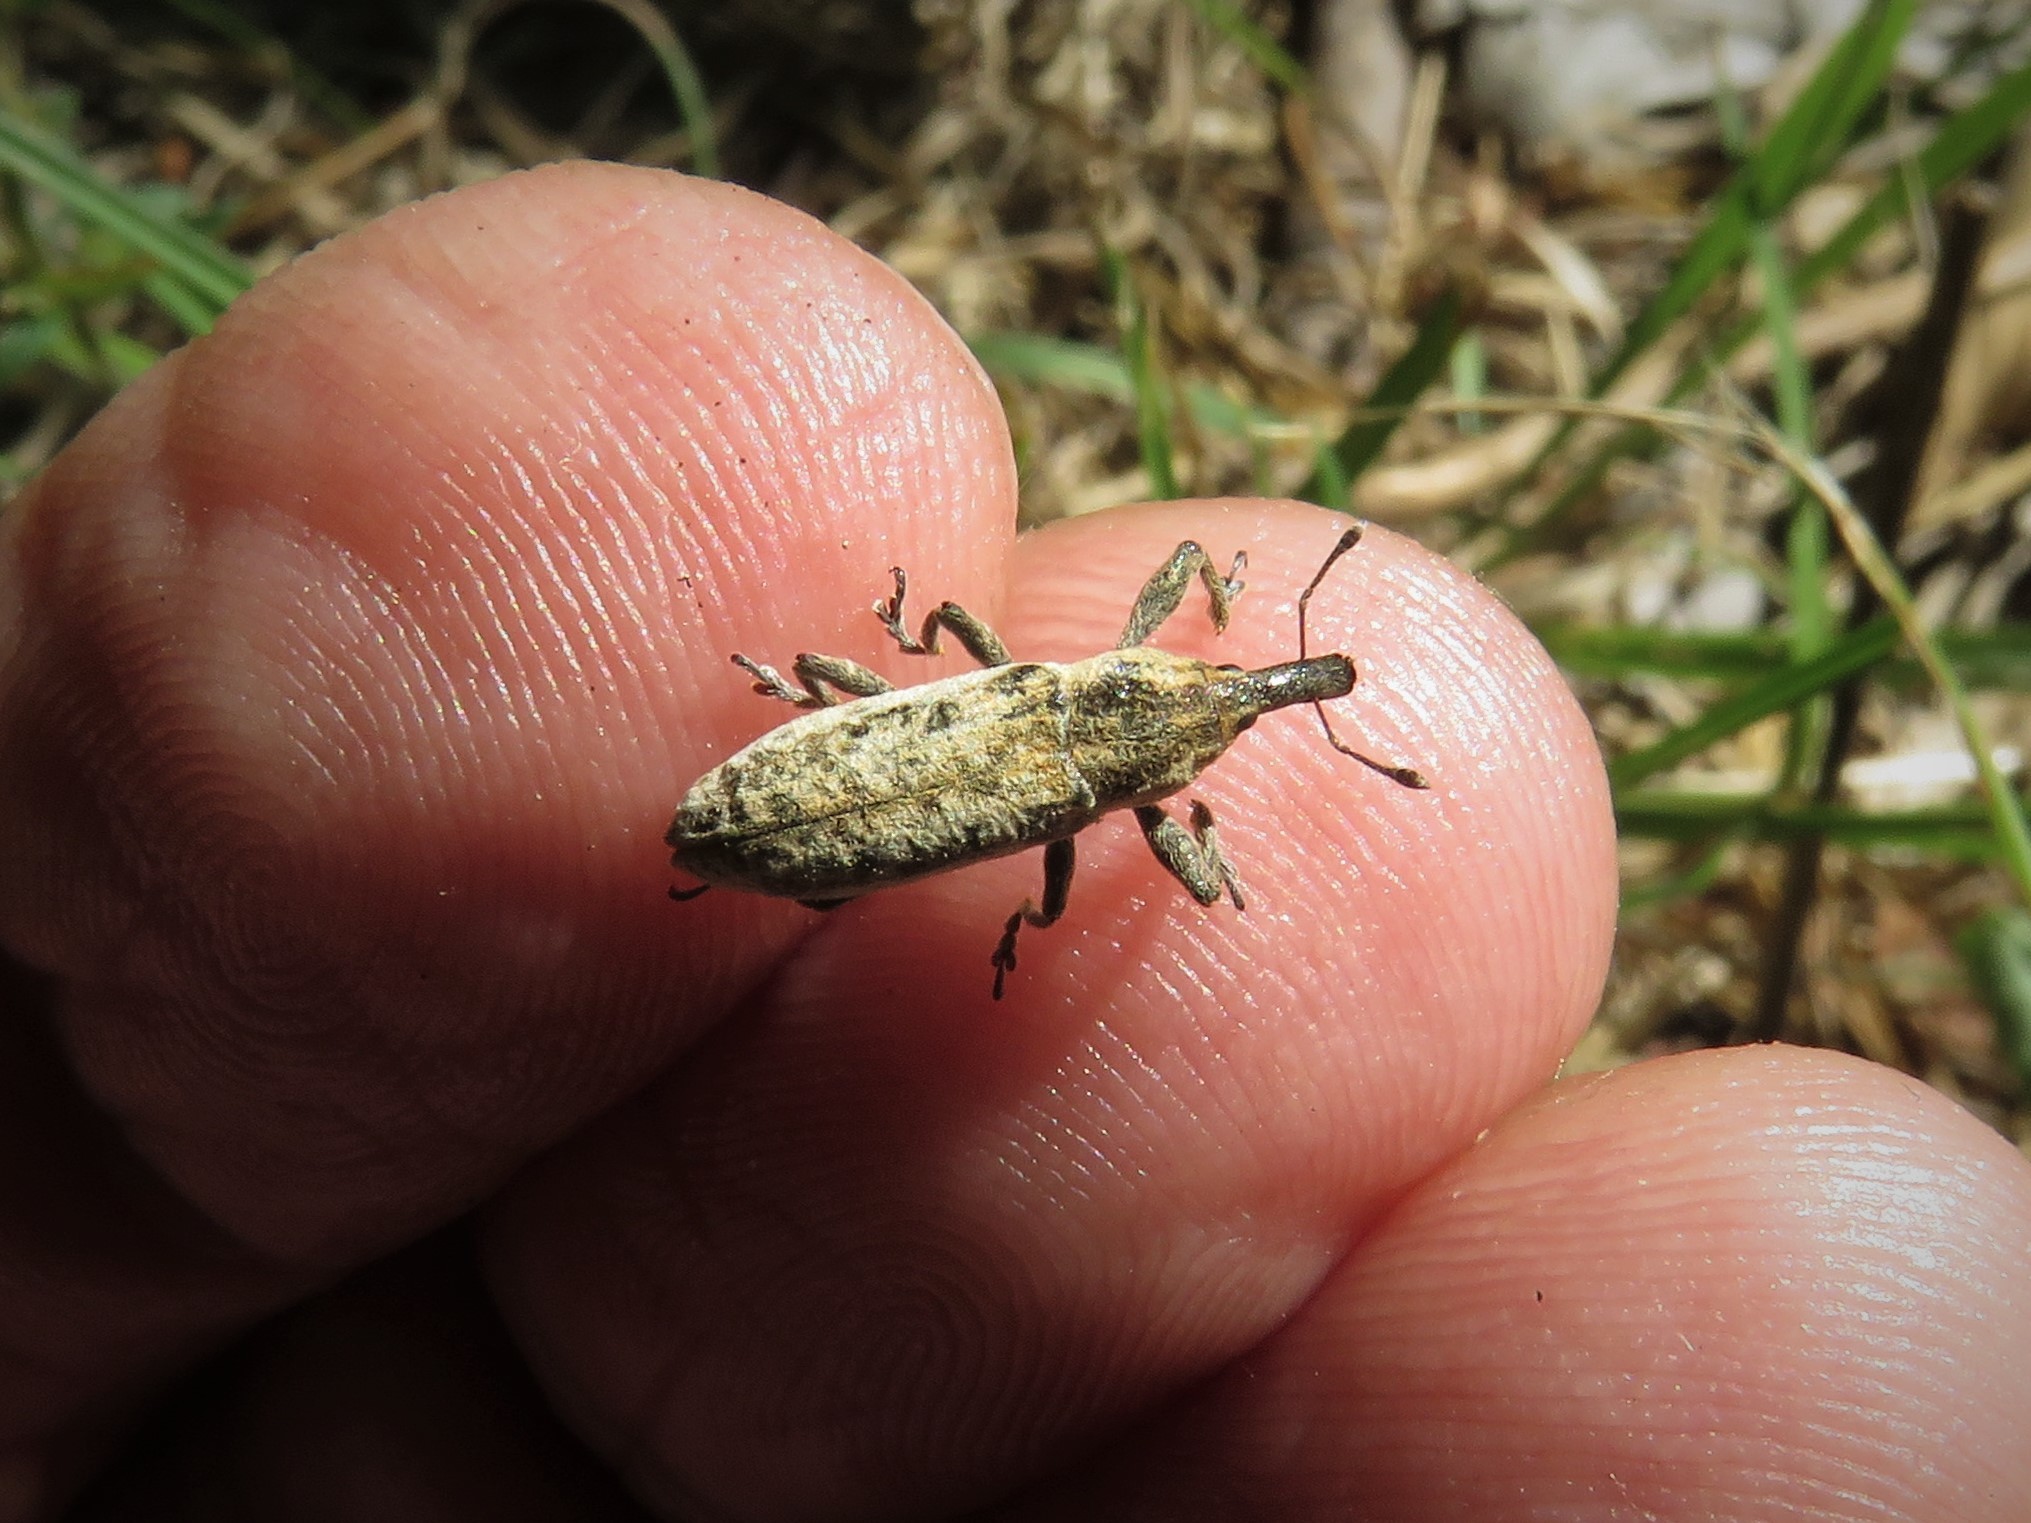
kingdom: Animalia
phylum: Arthropoda
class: Insecta
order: Coleoptera
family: Curculionidae
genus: Lixus
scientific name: Lixus scrobicollis
